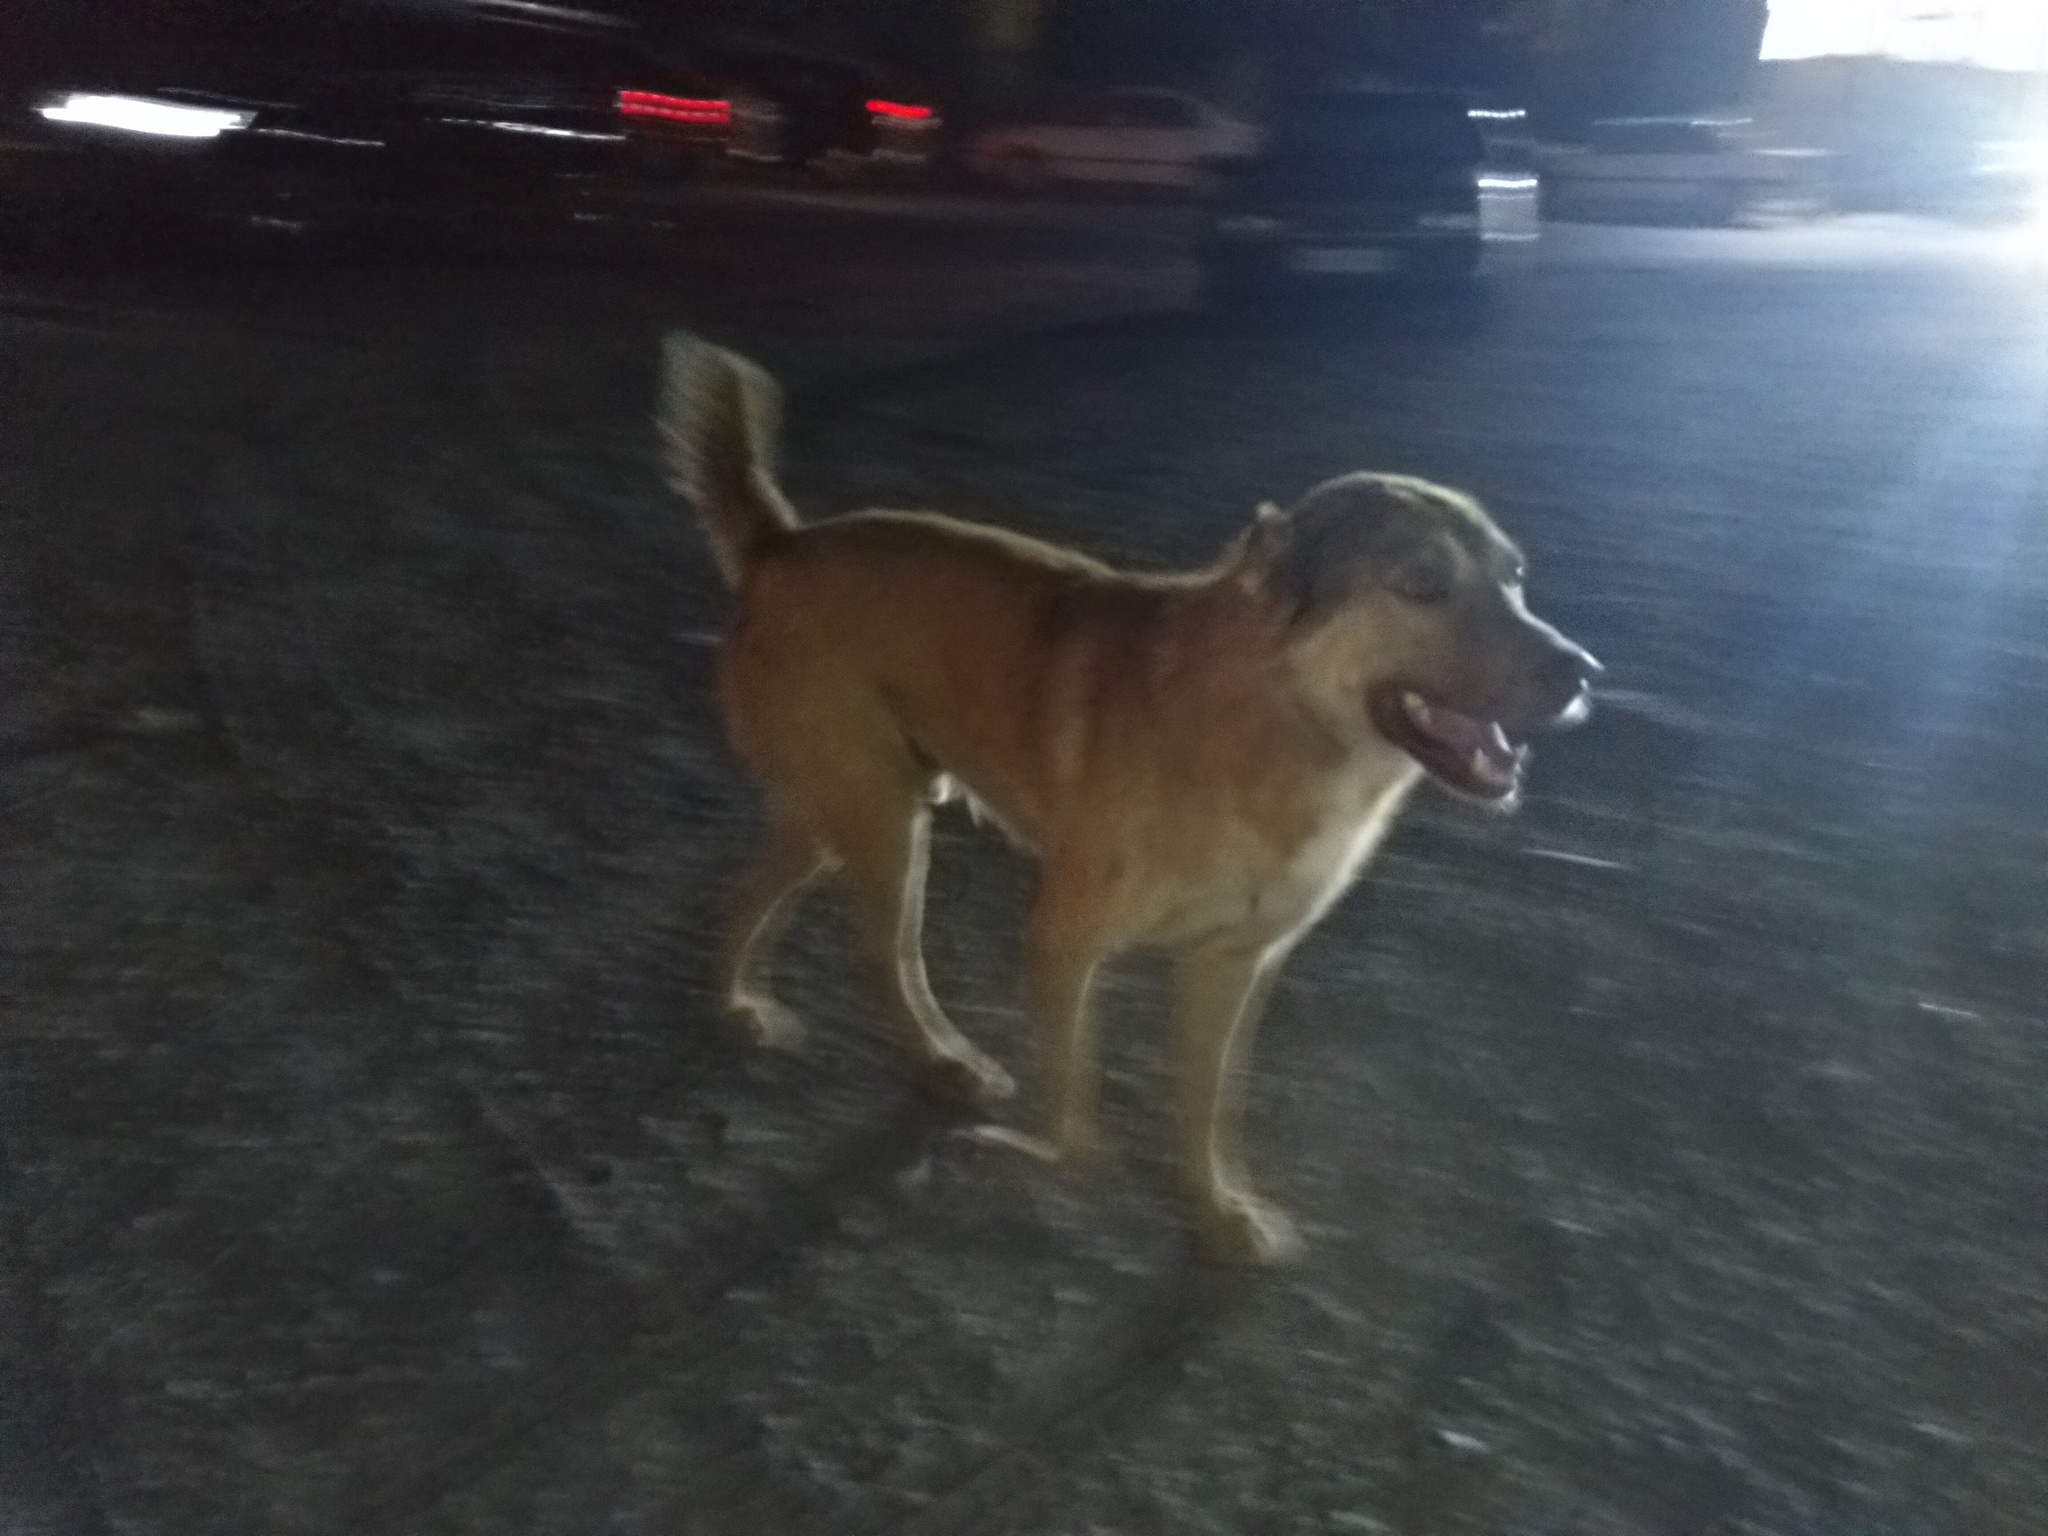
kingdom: Animalia
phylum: Chordata
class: Mammalia
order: Carnivora
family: Canidae
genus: Canis
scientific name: Canis lupus
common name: Gray wolf
